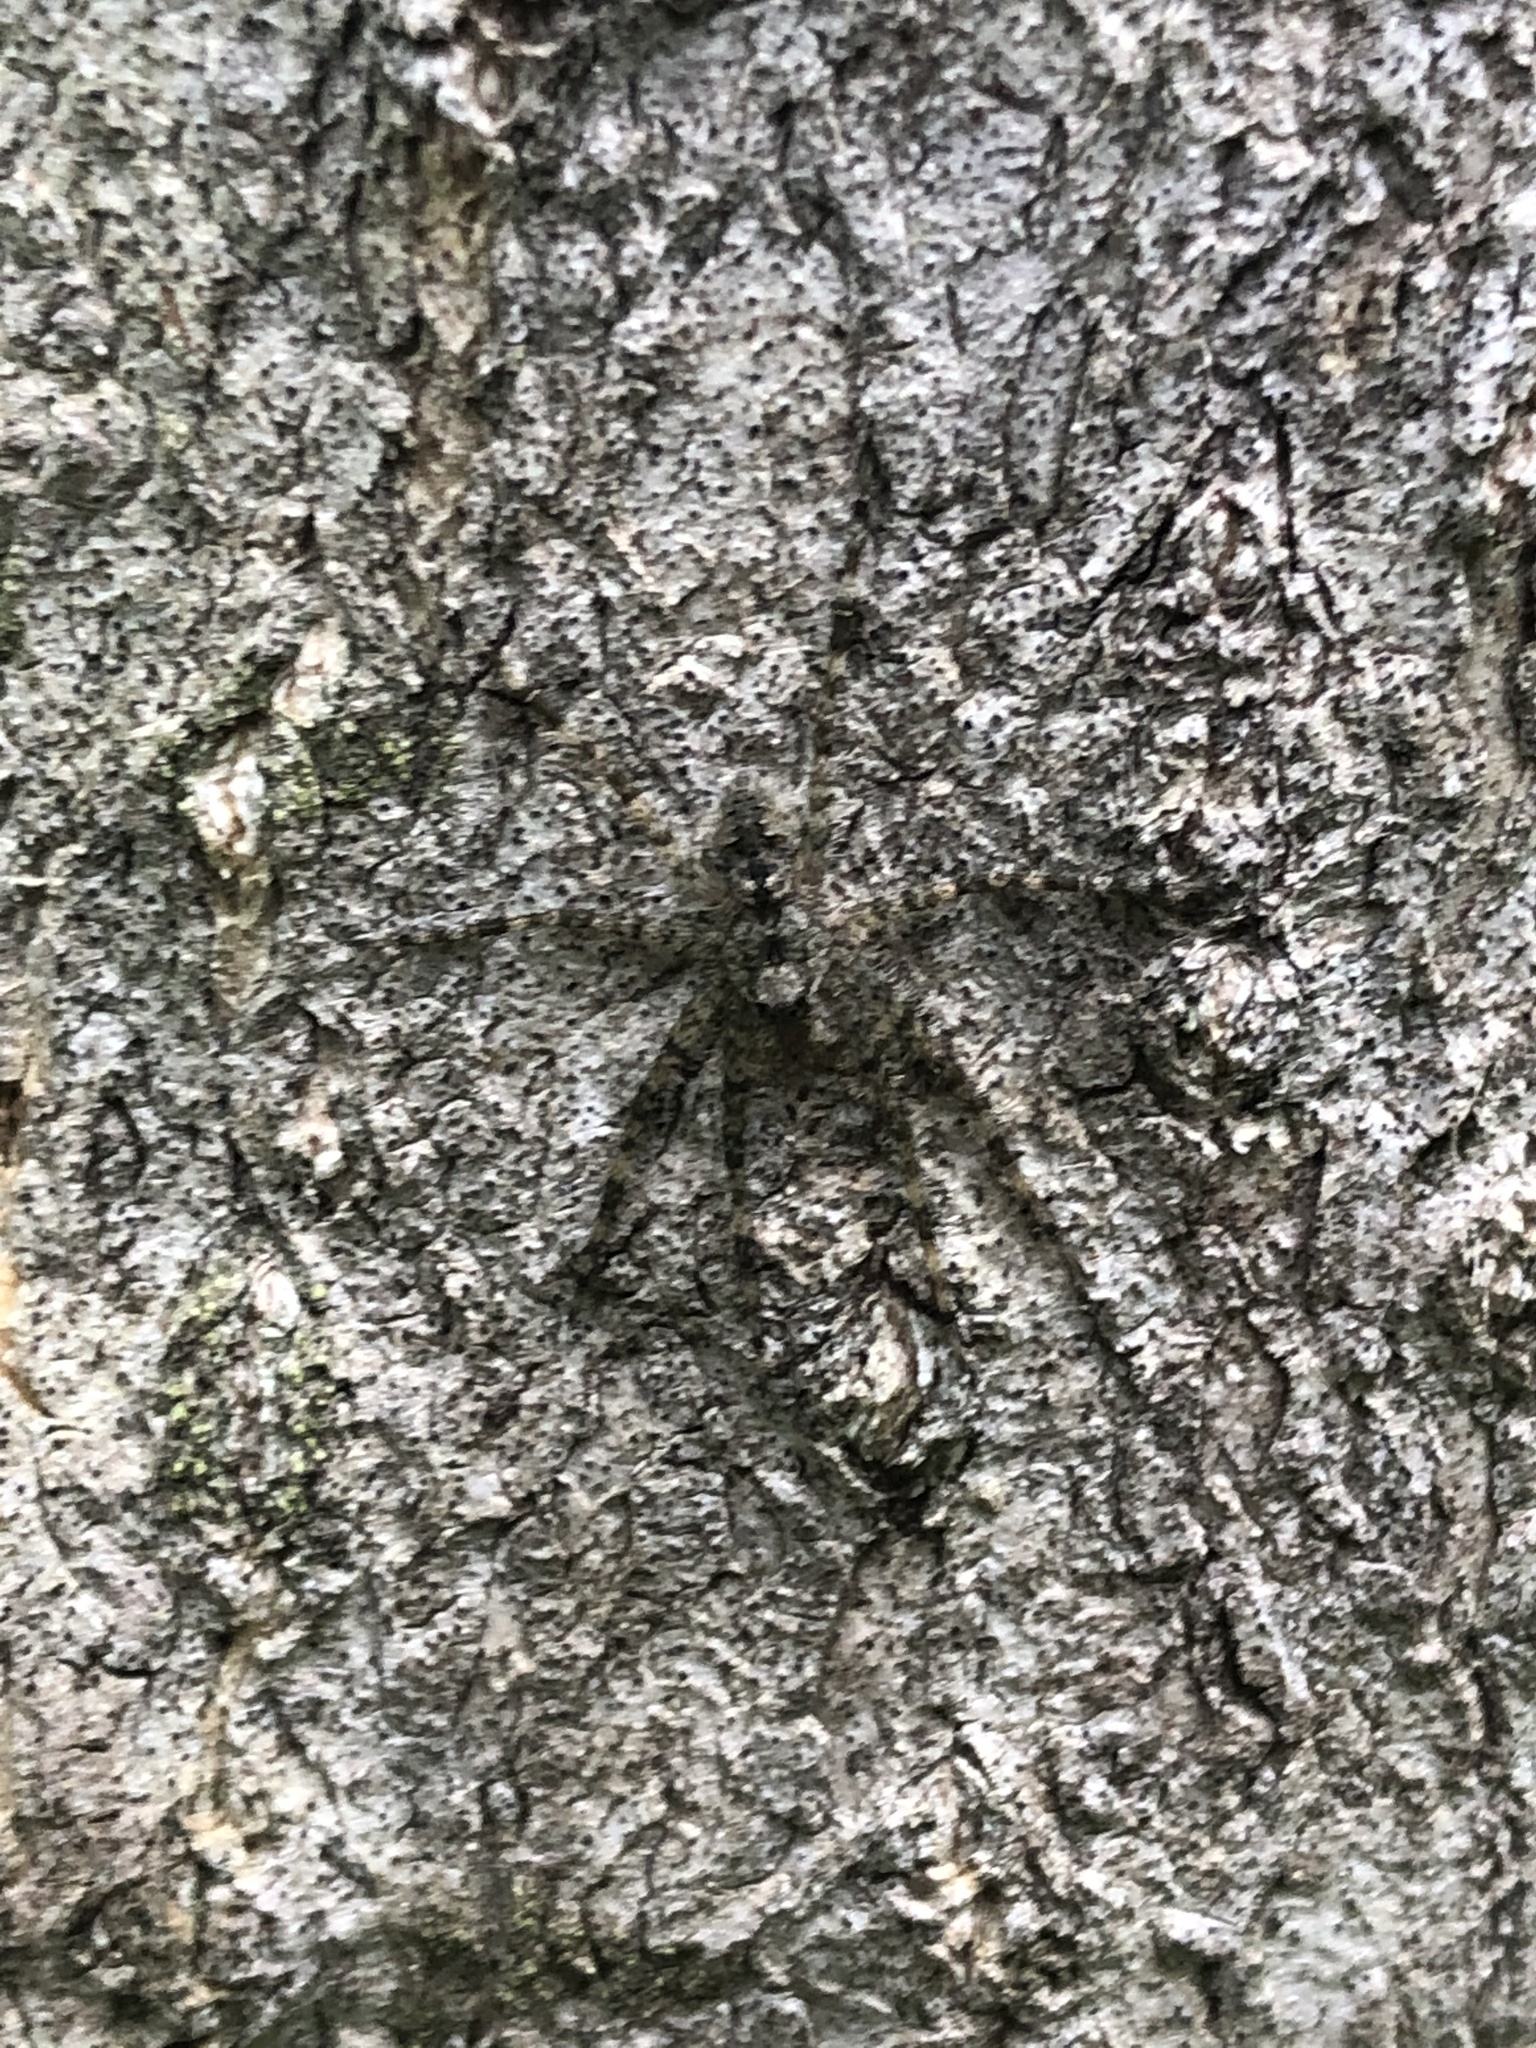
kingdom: Animalia
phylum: Arthropoda
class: Arachnida
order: Araneae
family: Pisauridae
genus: Dolomedes
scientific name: Dolomedes albineus
